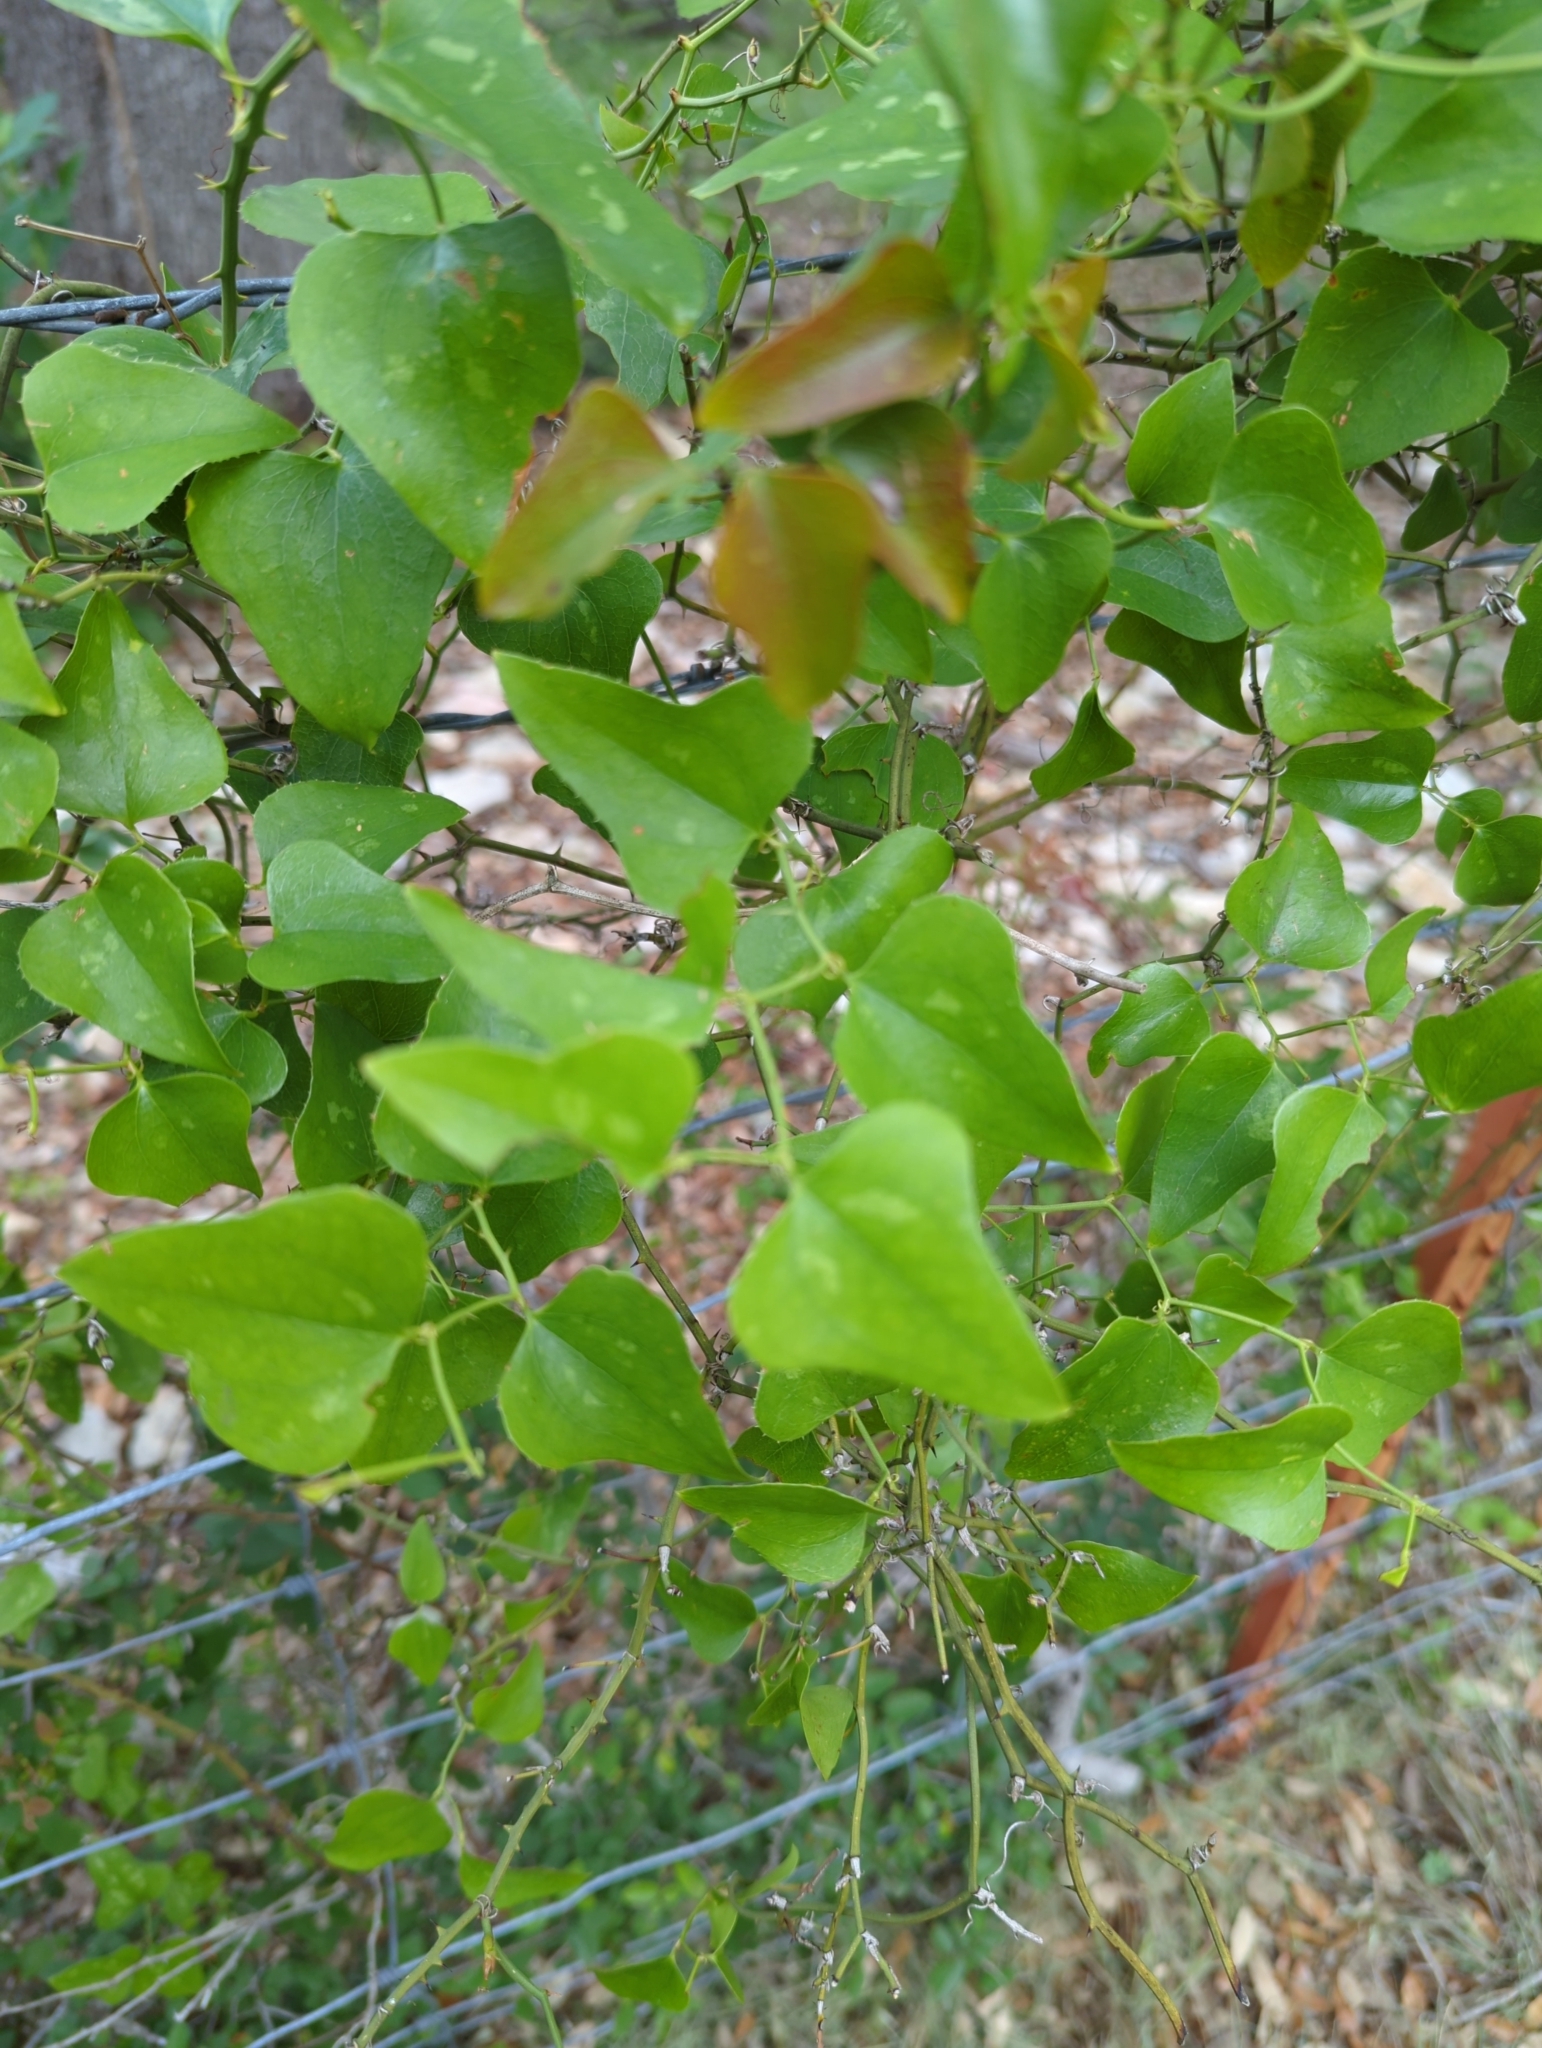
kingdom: Plantae
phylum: Tracheophyta
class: Liliopsida
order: Liliales
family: Smilacaceae
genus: Smilax
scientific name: Smilax bona-nox
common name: Catbrier
